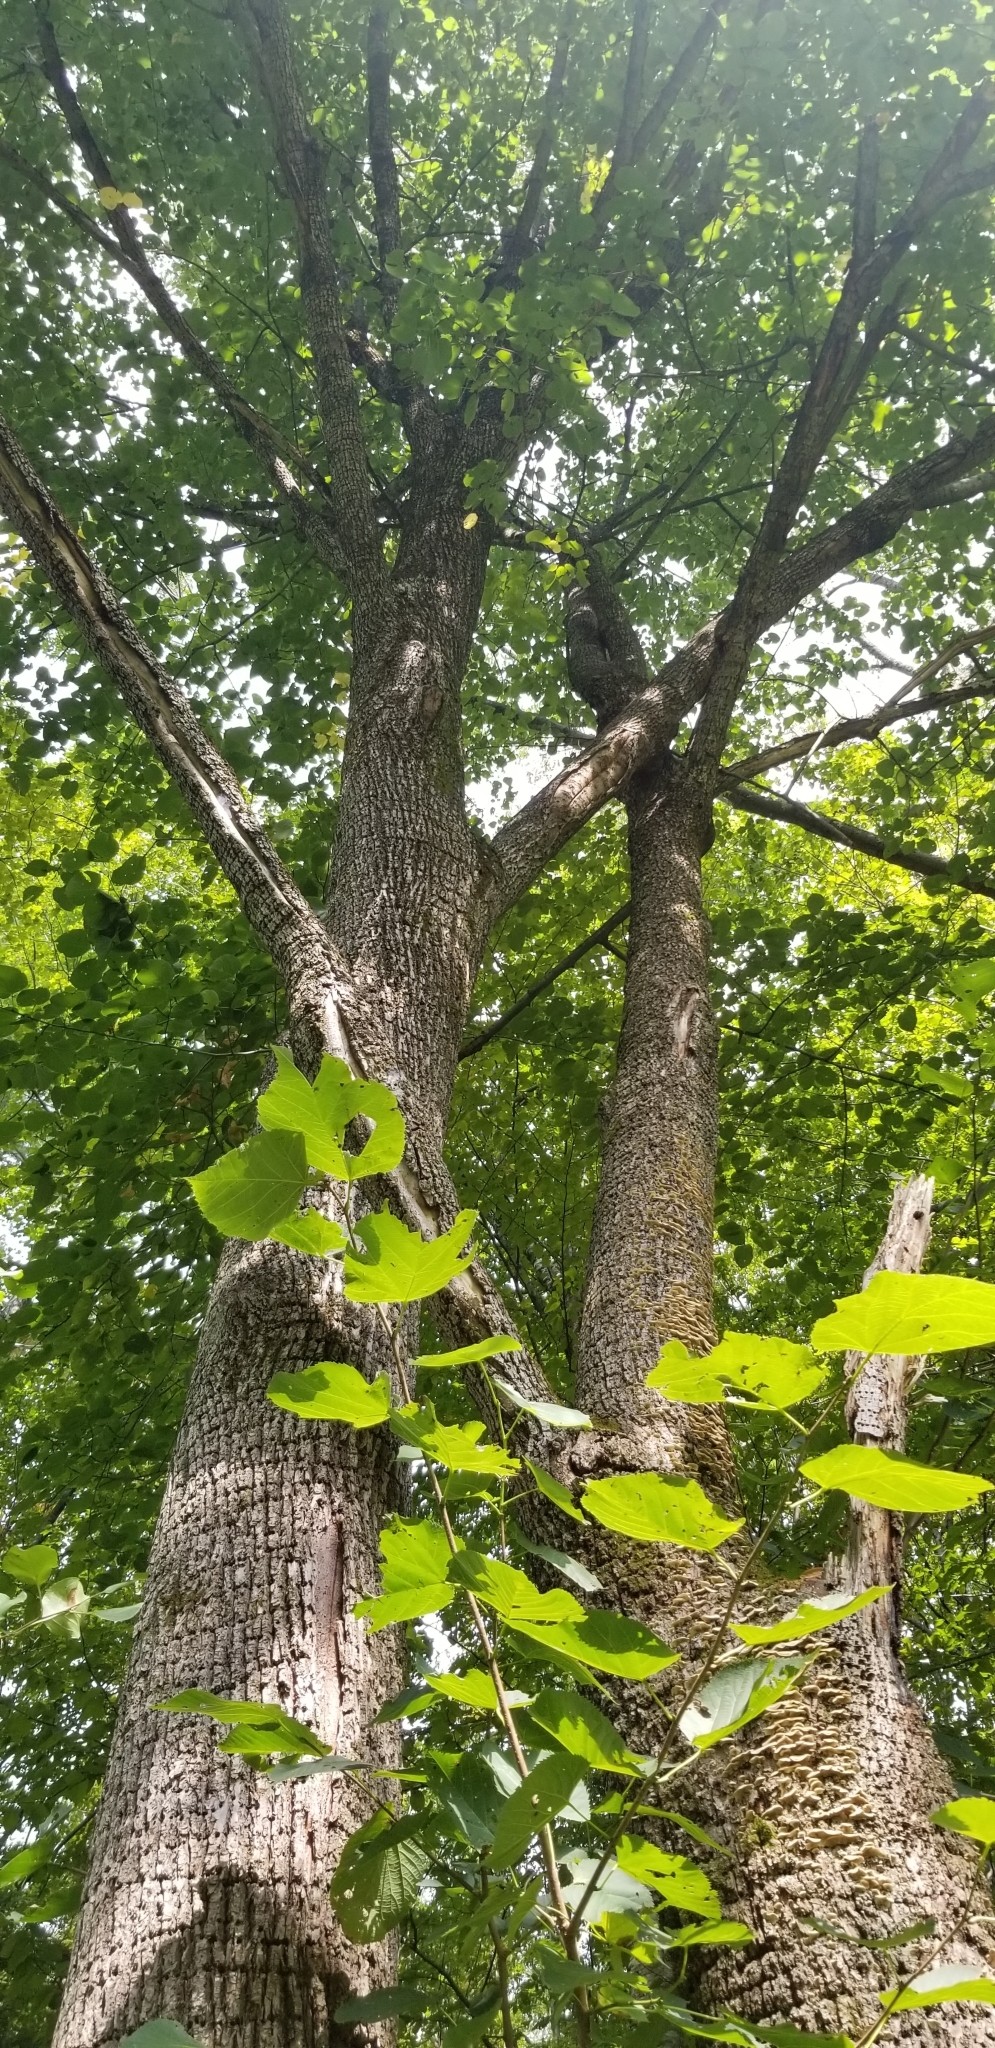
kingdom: Plantae
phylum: Tracheophyta
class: Magnoliopsida
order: Malvales
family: Malvaceae
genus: Tilia
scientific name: Tilia americana
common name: Basswood
